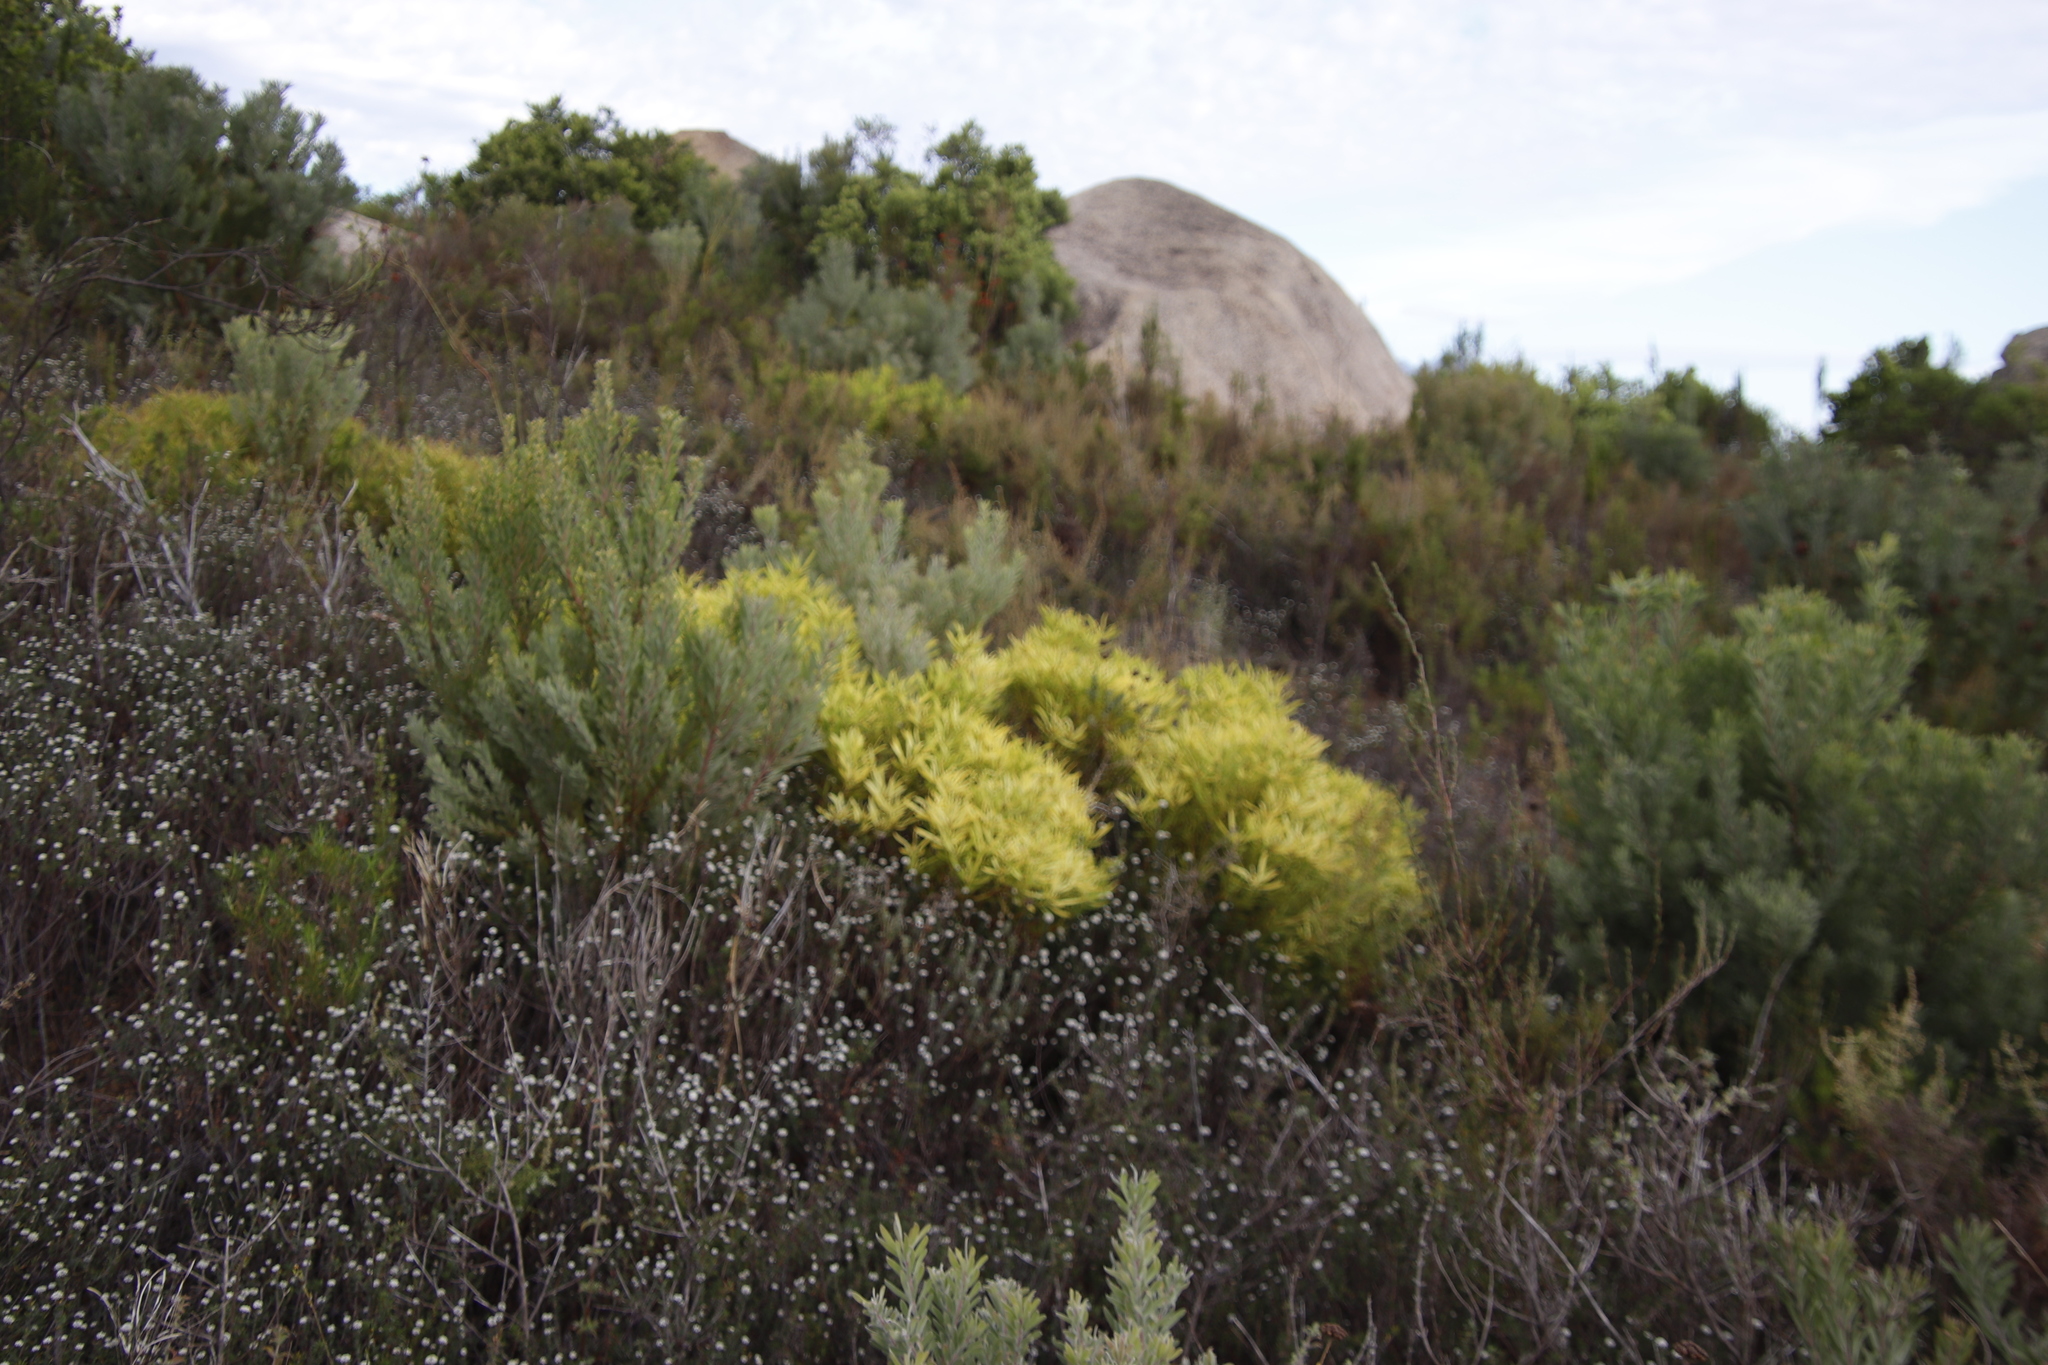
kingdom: Plantae
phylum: Tracheophyta
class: Magnoliopsida
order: Proteales
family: Proteaceae
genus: Leucadendron
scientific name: Leucadendron salignum
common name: Common sunshine conebush
